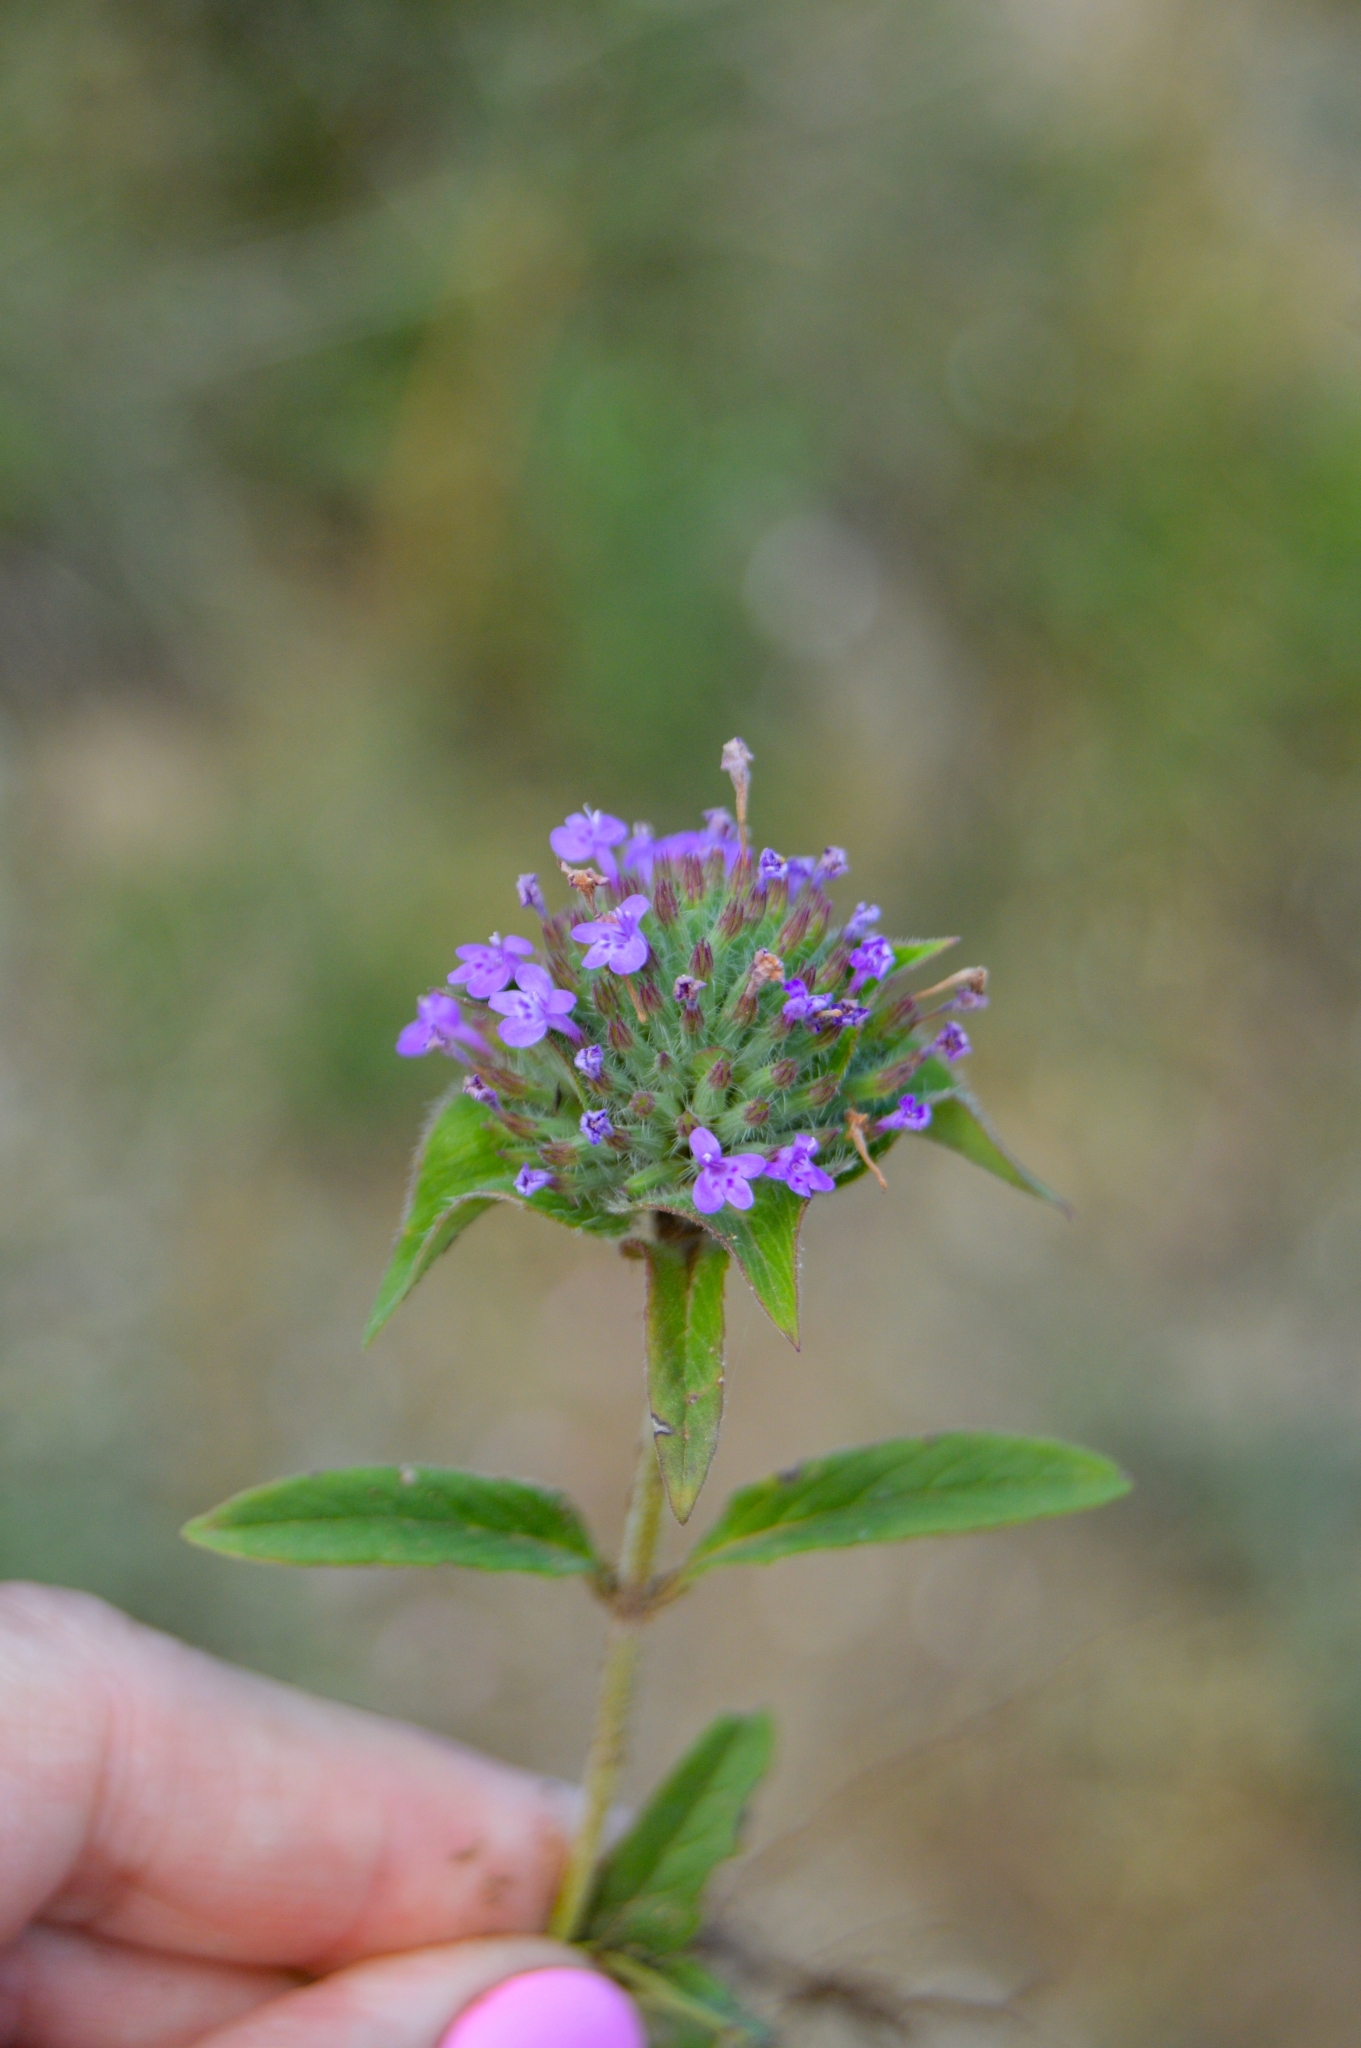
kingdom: Plantae
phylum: Tracheophyta
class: Magnoliopsida
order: Lamiales
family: Lamiaceae
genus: Ziziphora
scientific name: Ziziphora capitata
